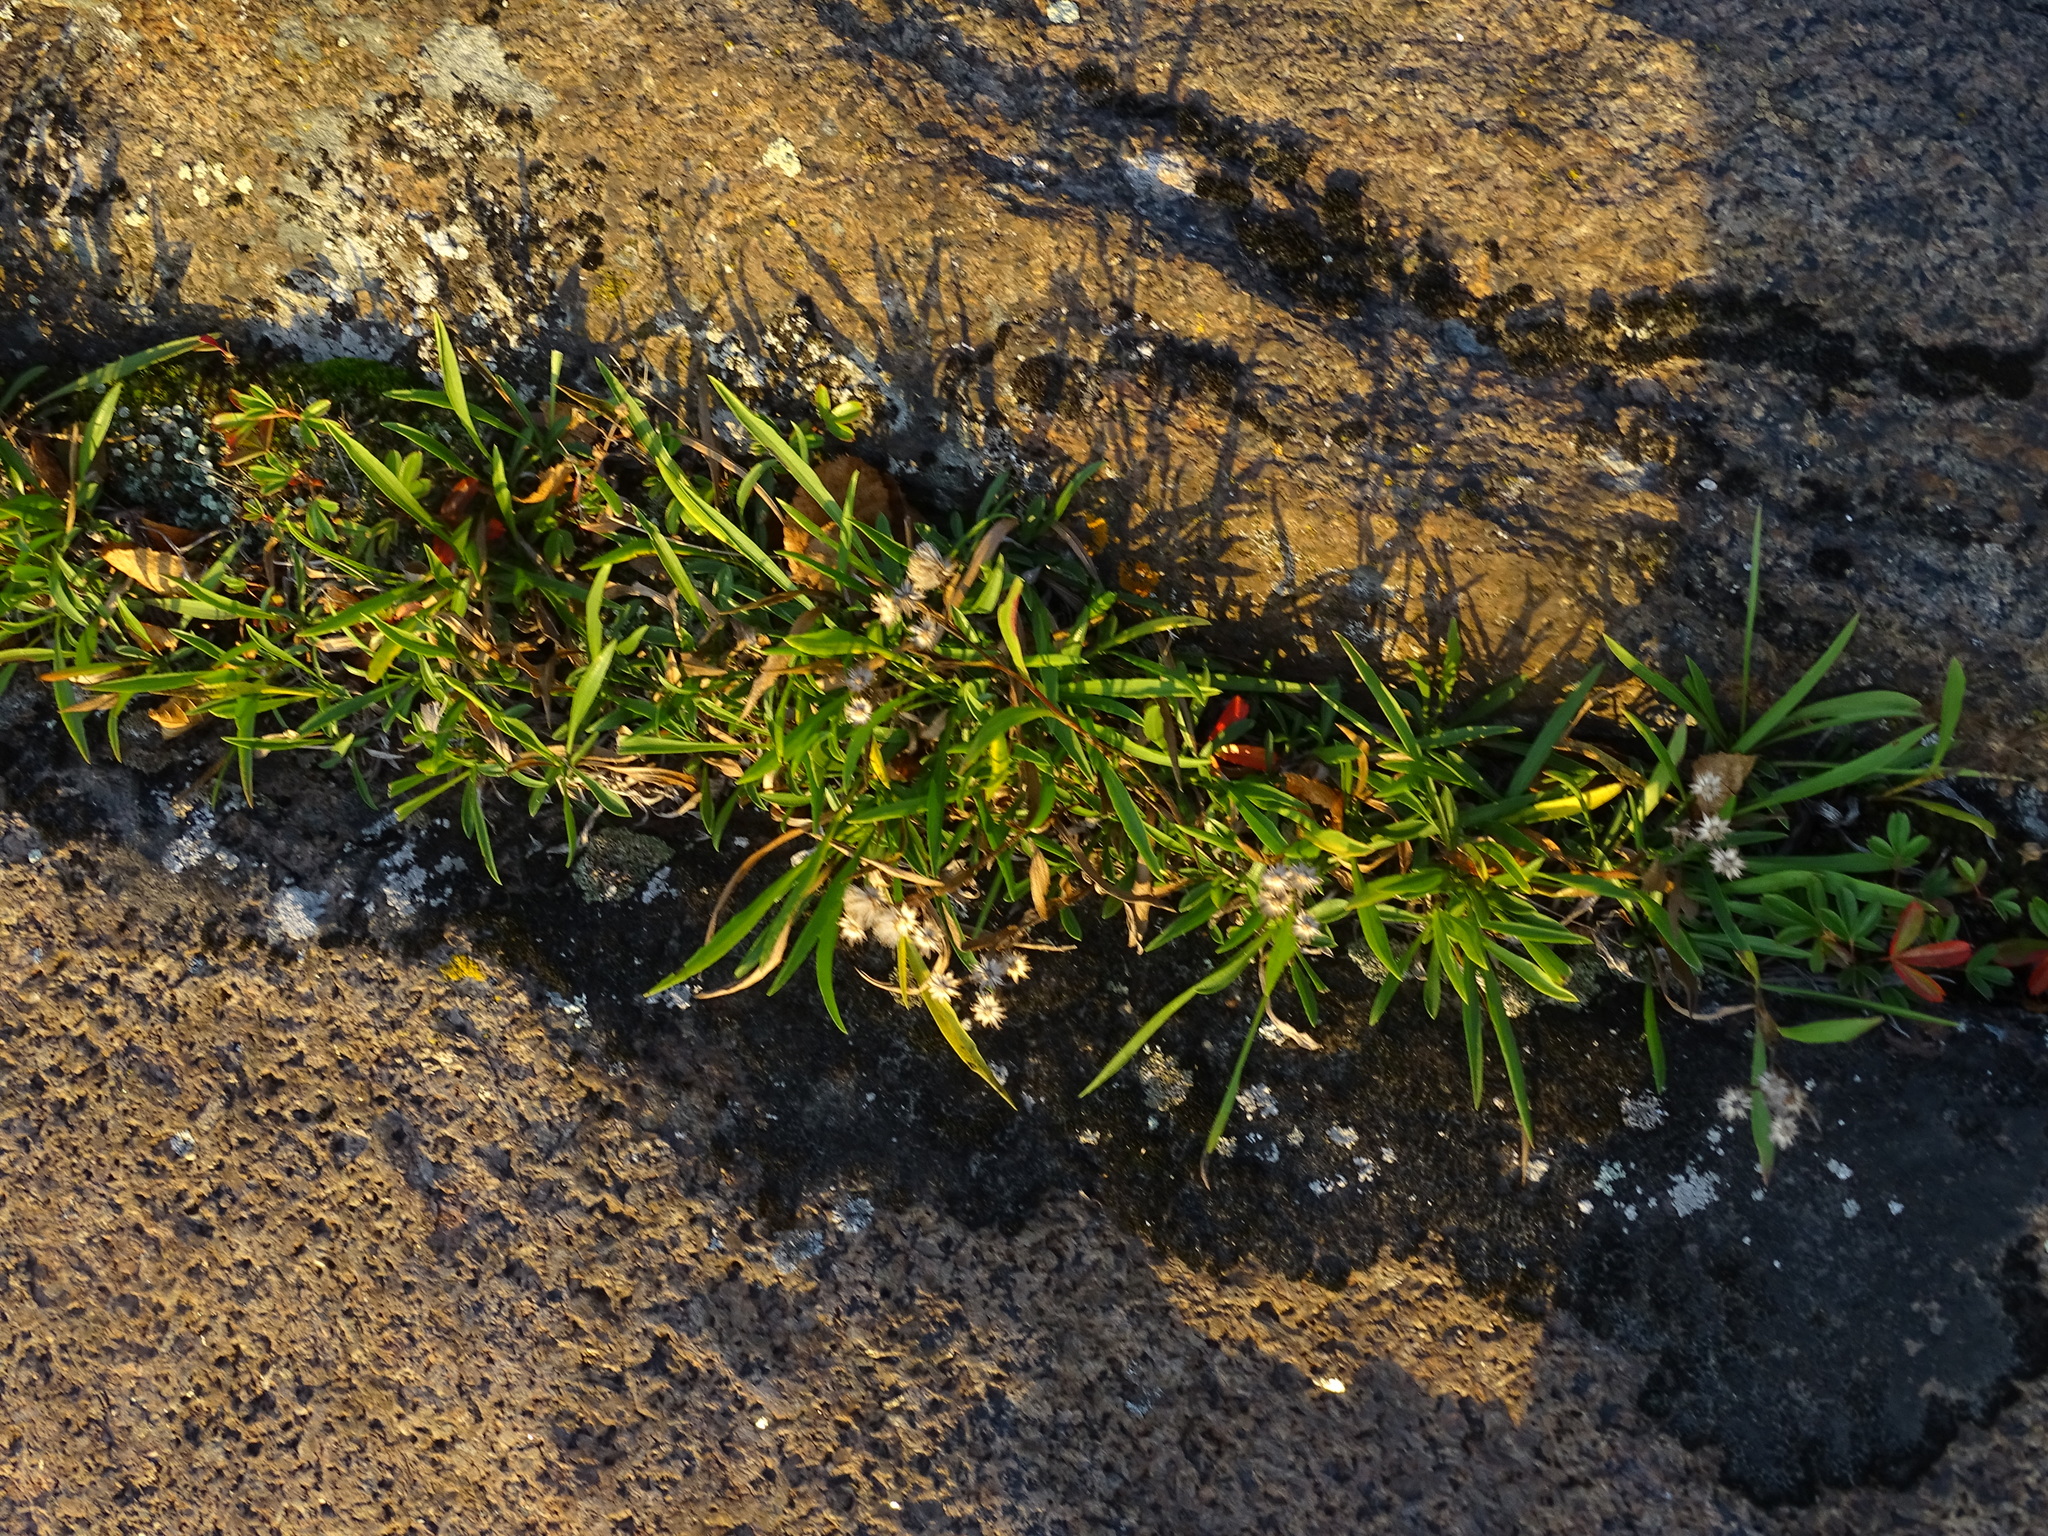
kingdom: Plantae
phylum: Tracheophyta
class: Magnoliopsida
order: Asterales
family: Asteraceae
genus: Solidago
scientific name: Solidago ptarmicoides
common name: White flat-top goldenrod
